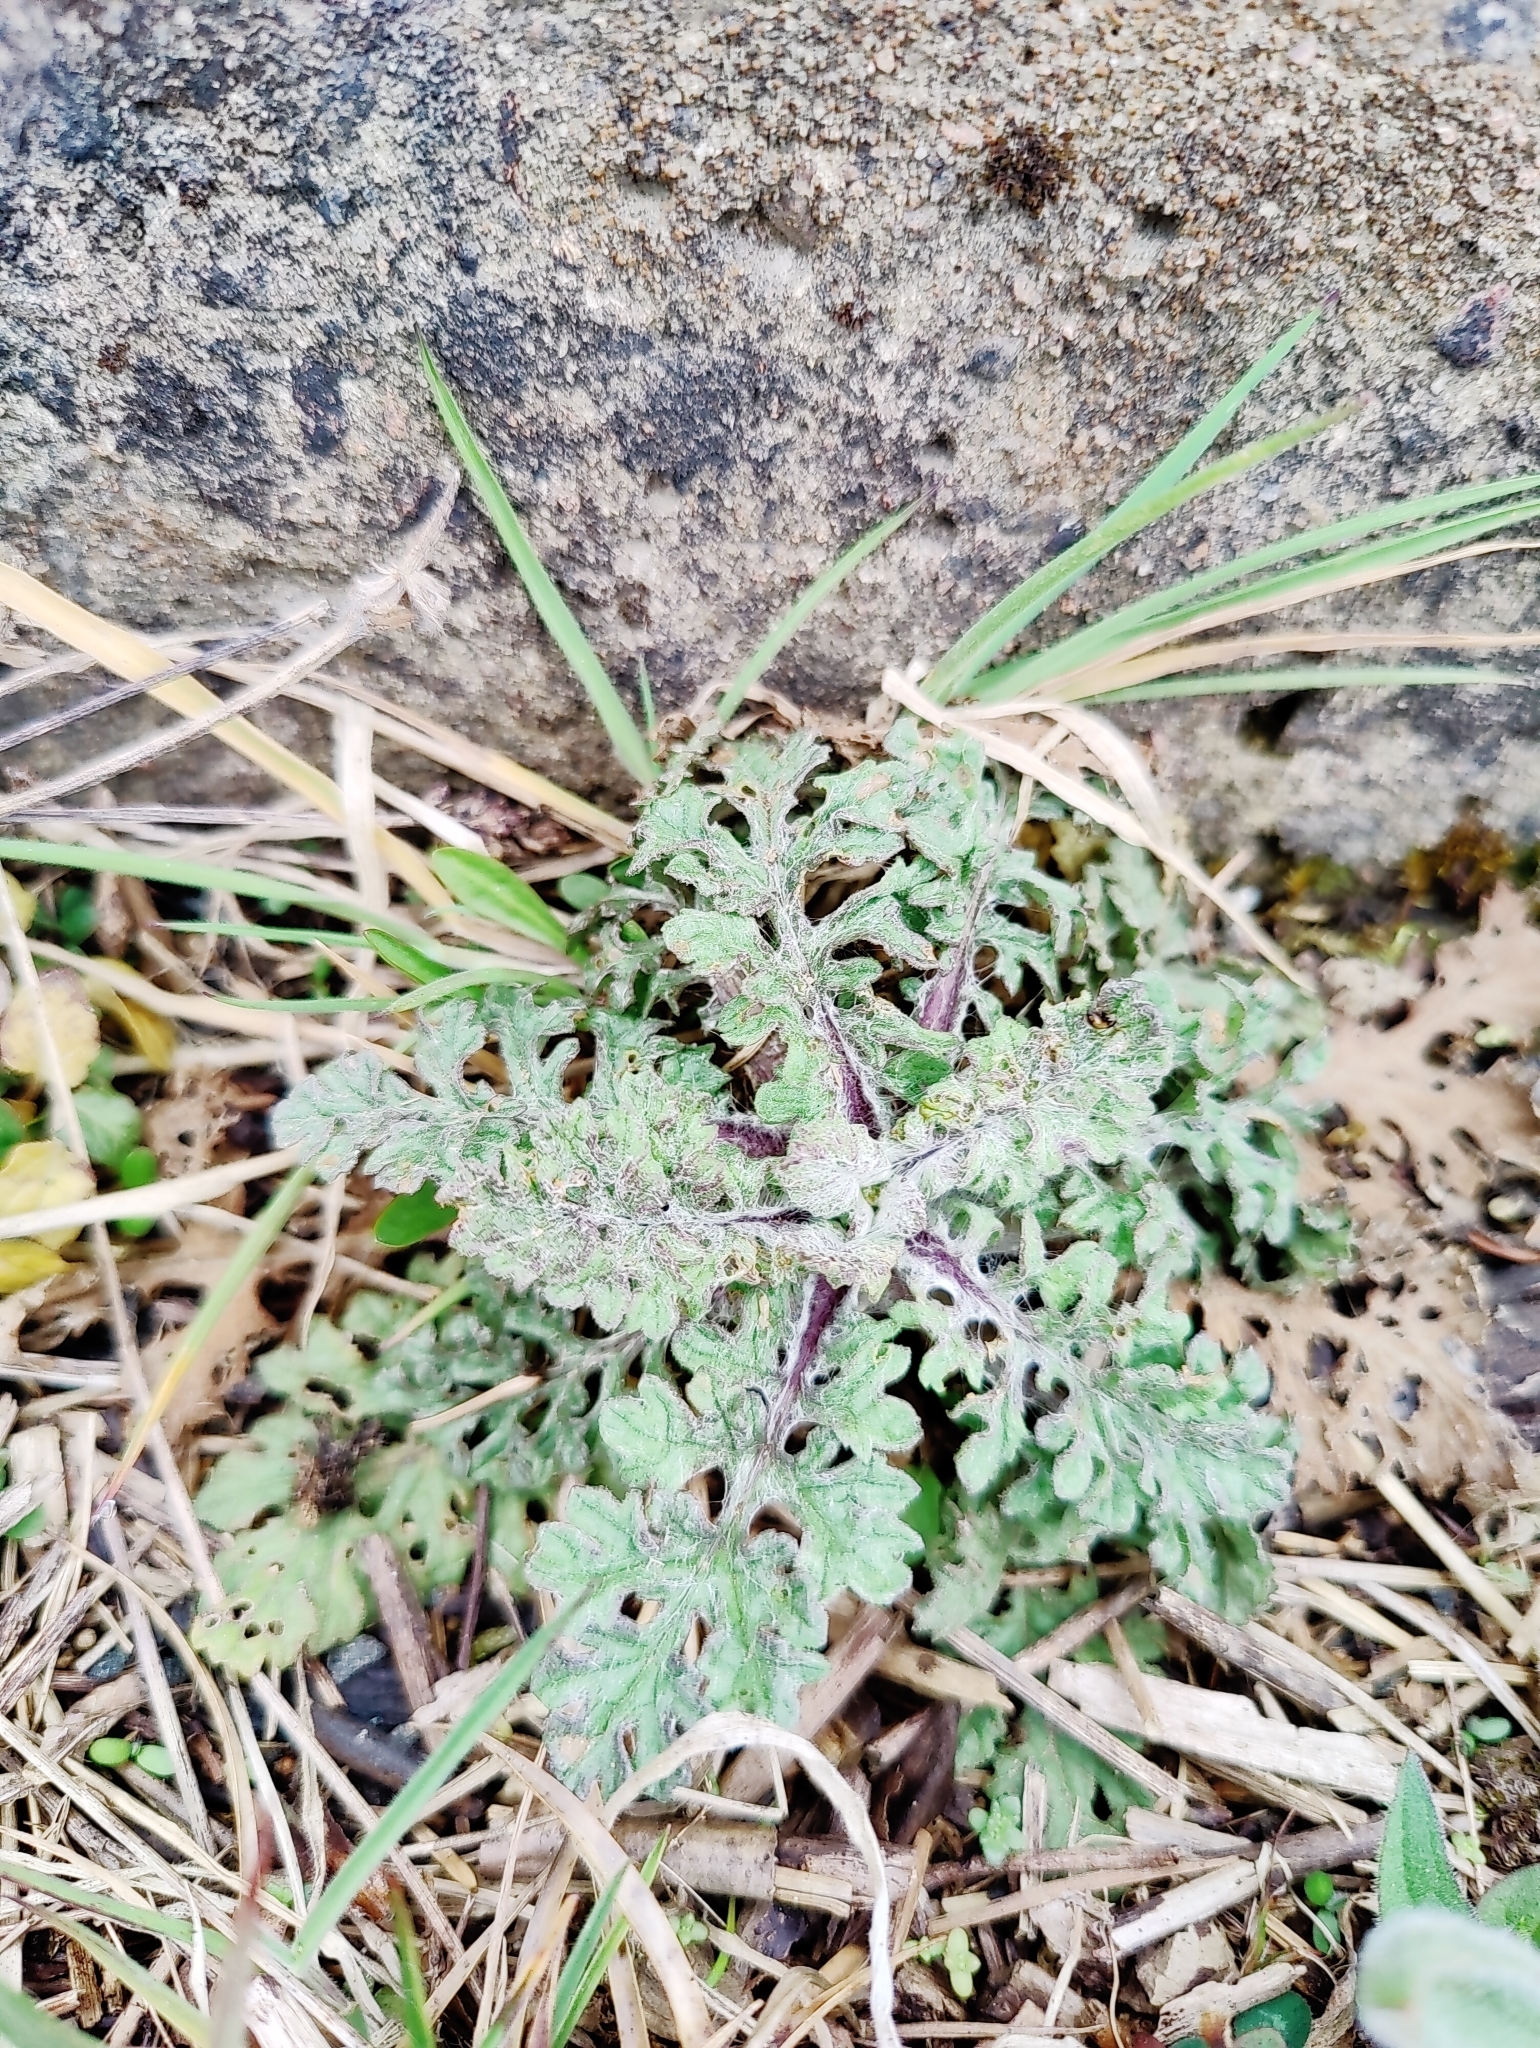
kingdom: Plantae
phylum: Tracheophyta
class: Magnoliopsida
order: Asterales
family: Asteraceae
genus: Jacobaea
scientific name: Jacobaea vulgaris
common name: Stinking willie
